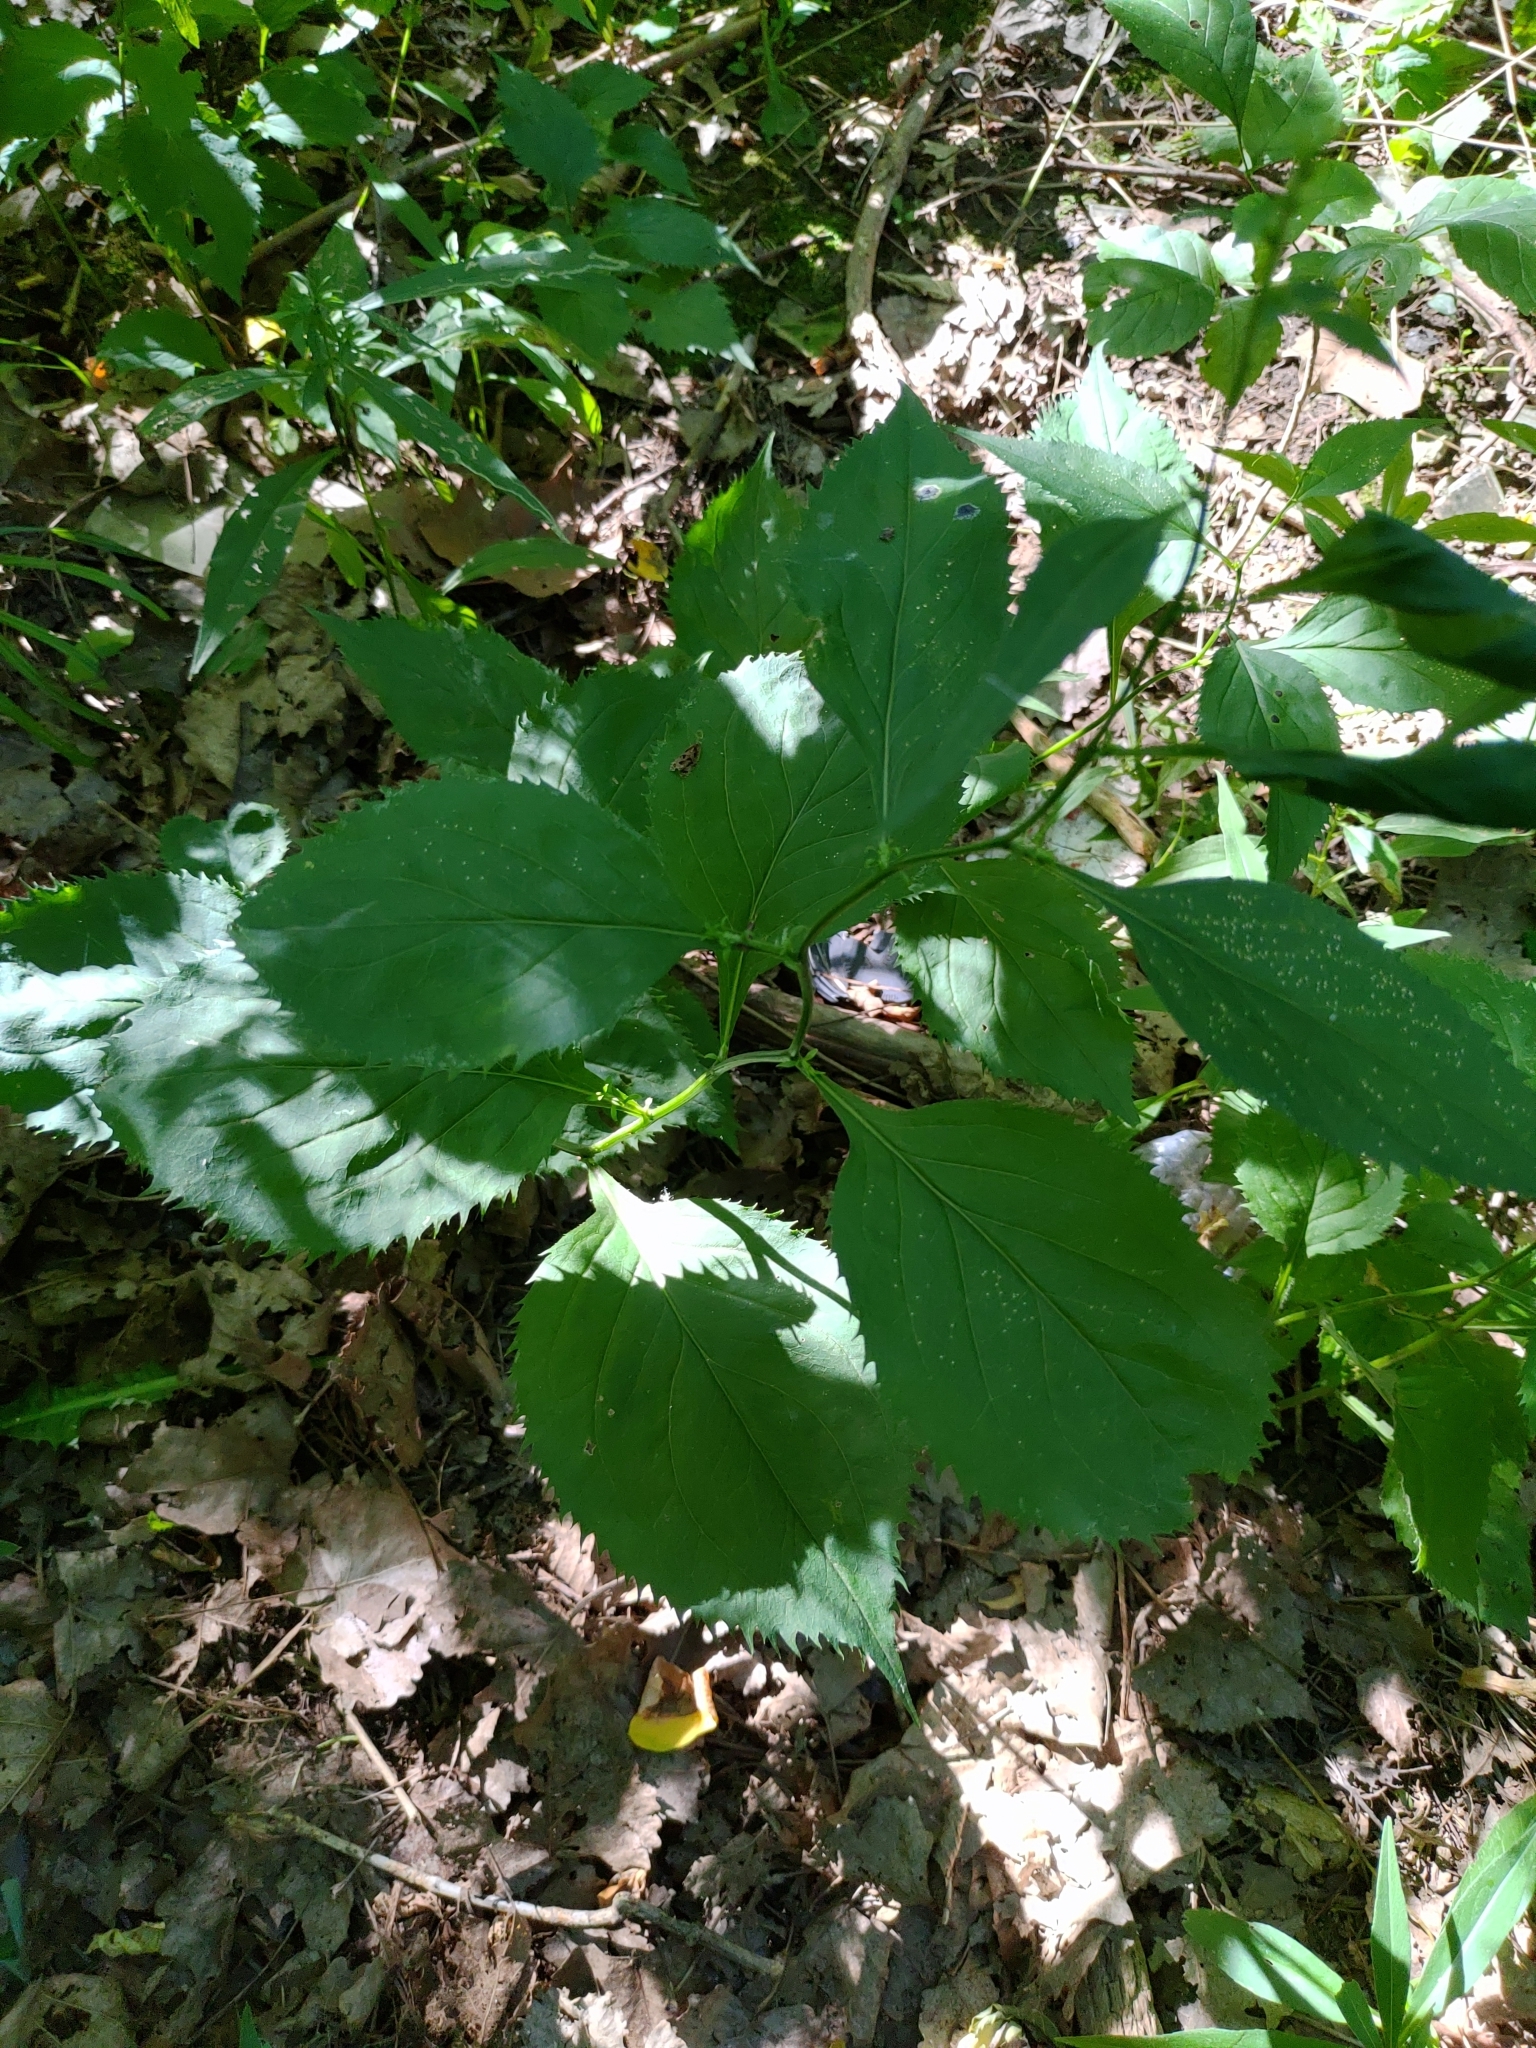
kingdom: Plantae
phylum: Tracheophyta
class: Magnoliopsida
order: Asterales
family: Asteraceae
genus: Solidago
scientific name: Solidago flexicaulis
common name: Zig-zag goldenrod
